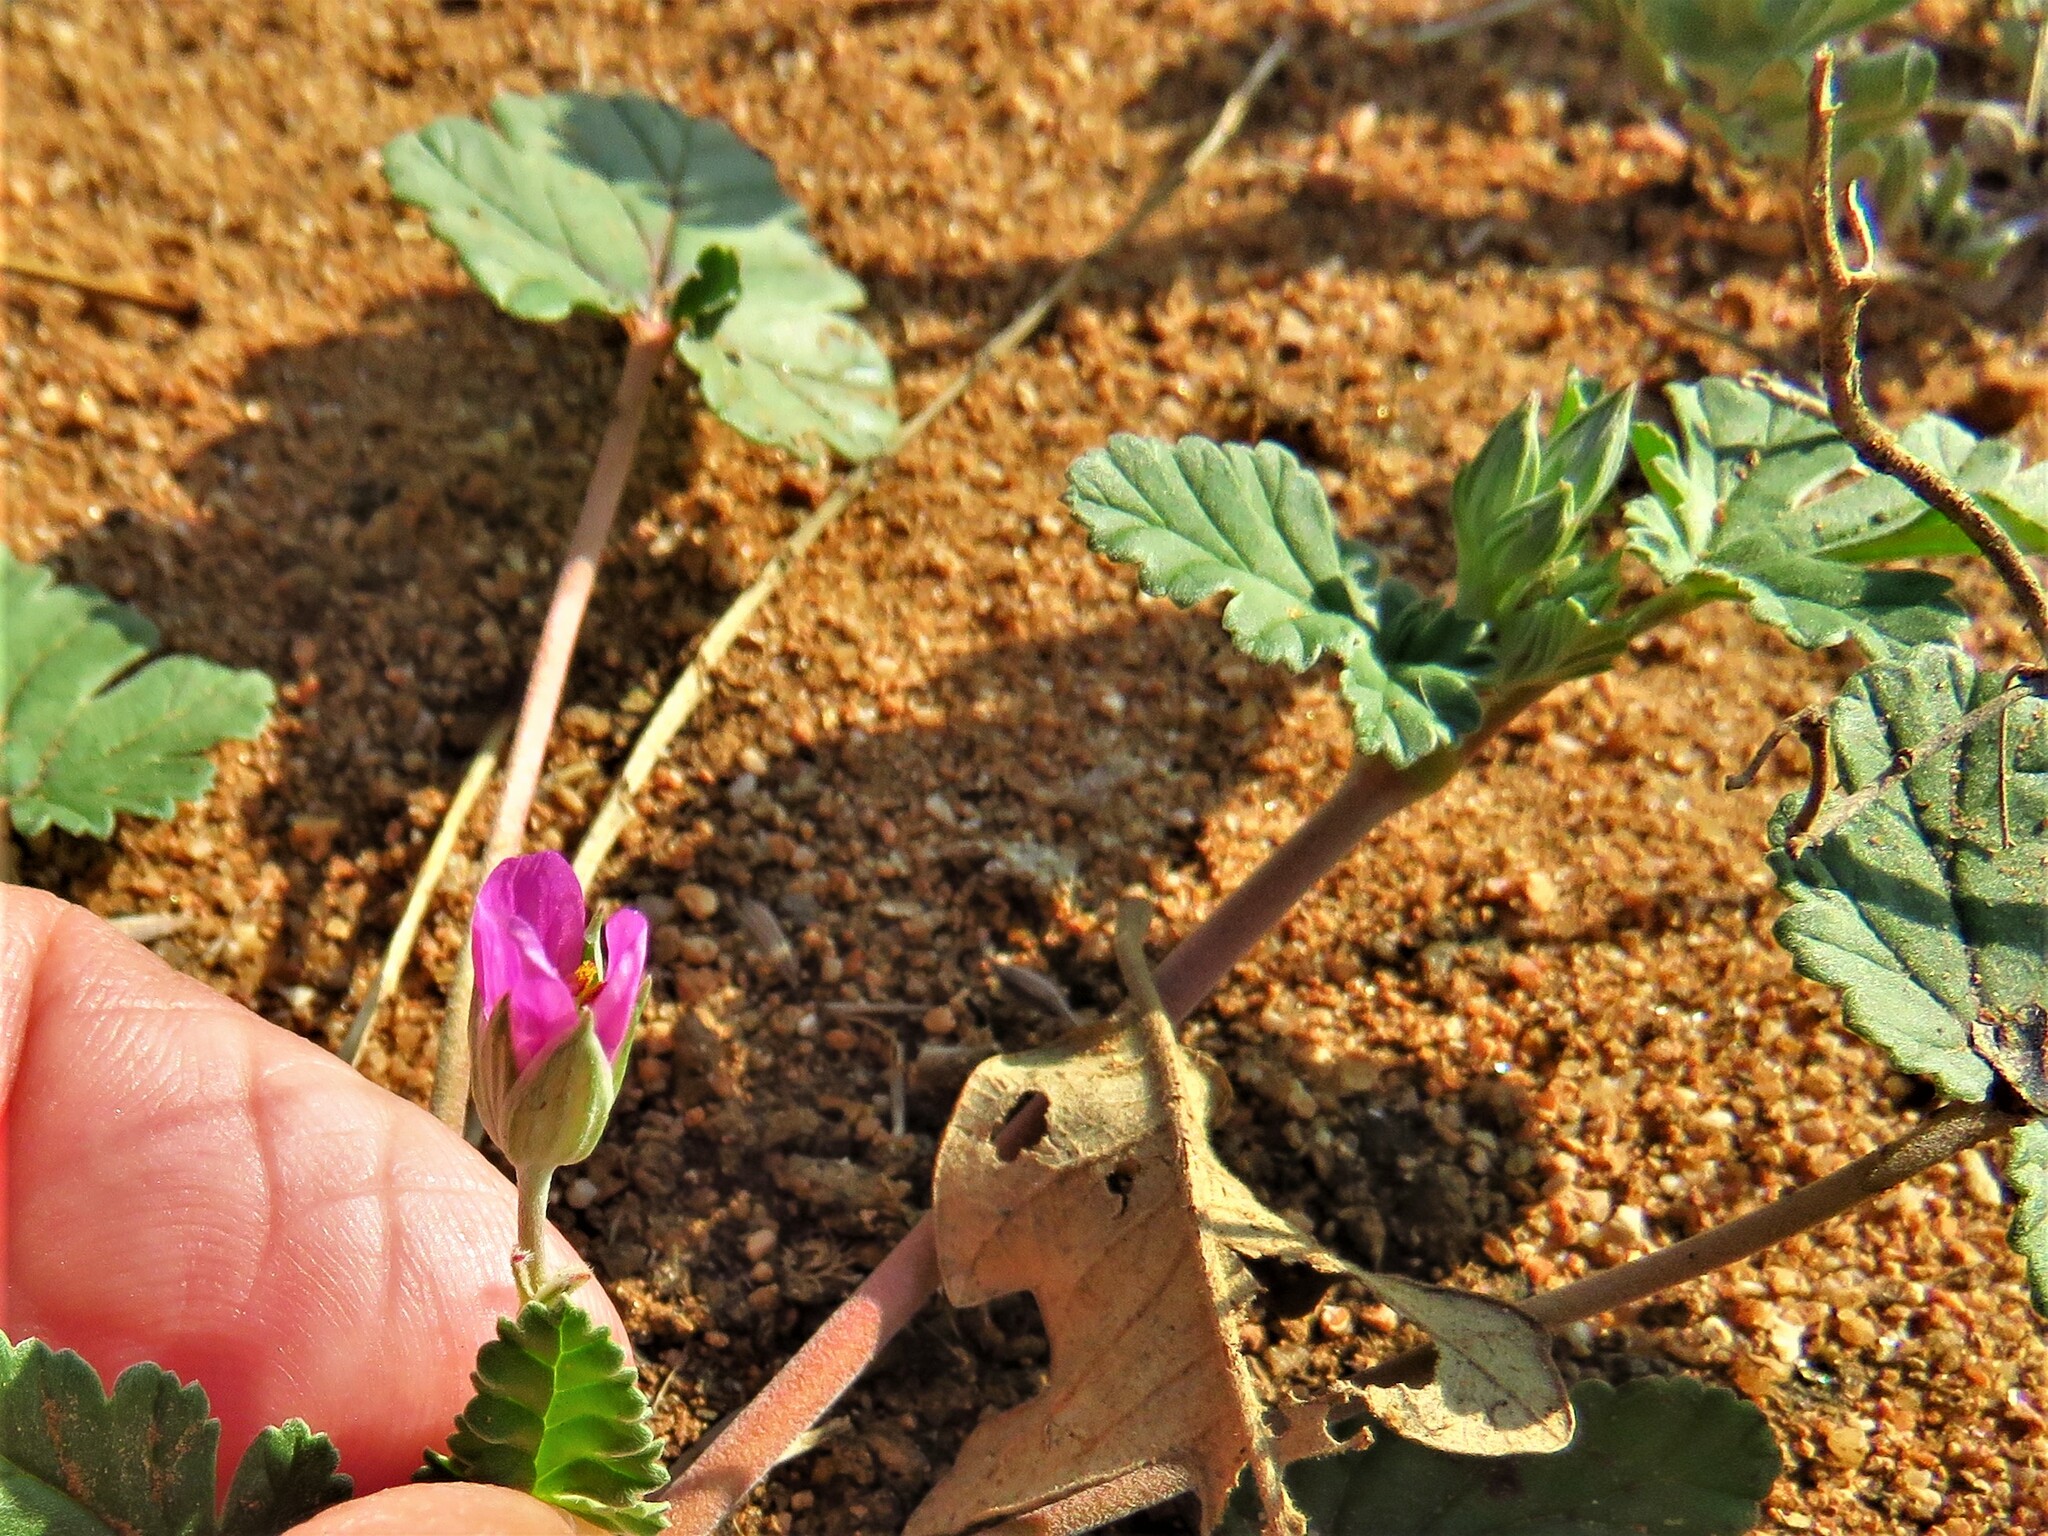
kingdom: Plantae
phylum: Tracheophyta
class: Magnoliopsida
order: Geraniales
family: Geraniaceae
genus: Erodium
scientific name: Erodium texanum
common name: Texas stork's-bill
